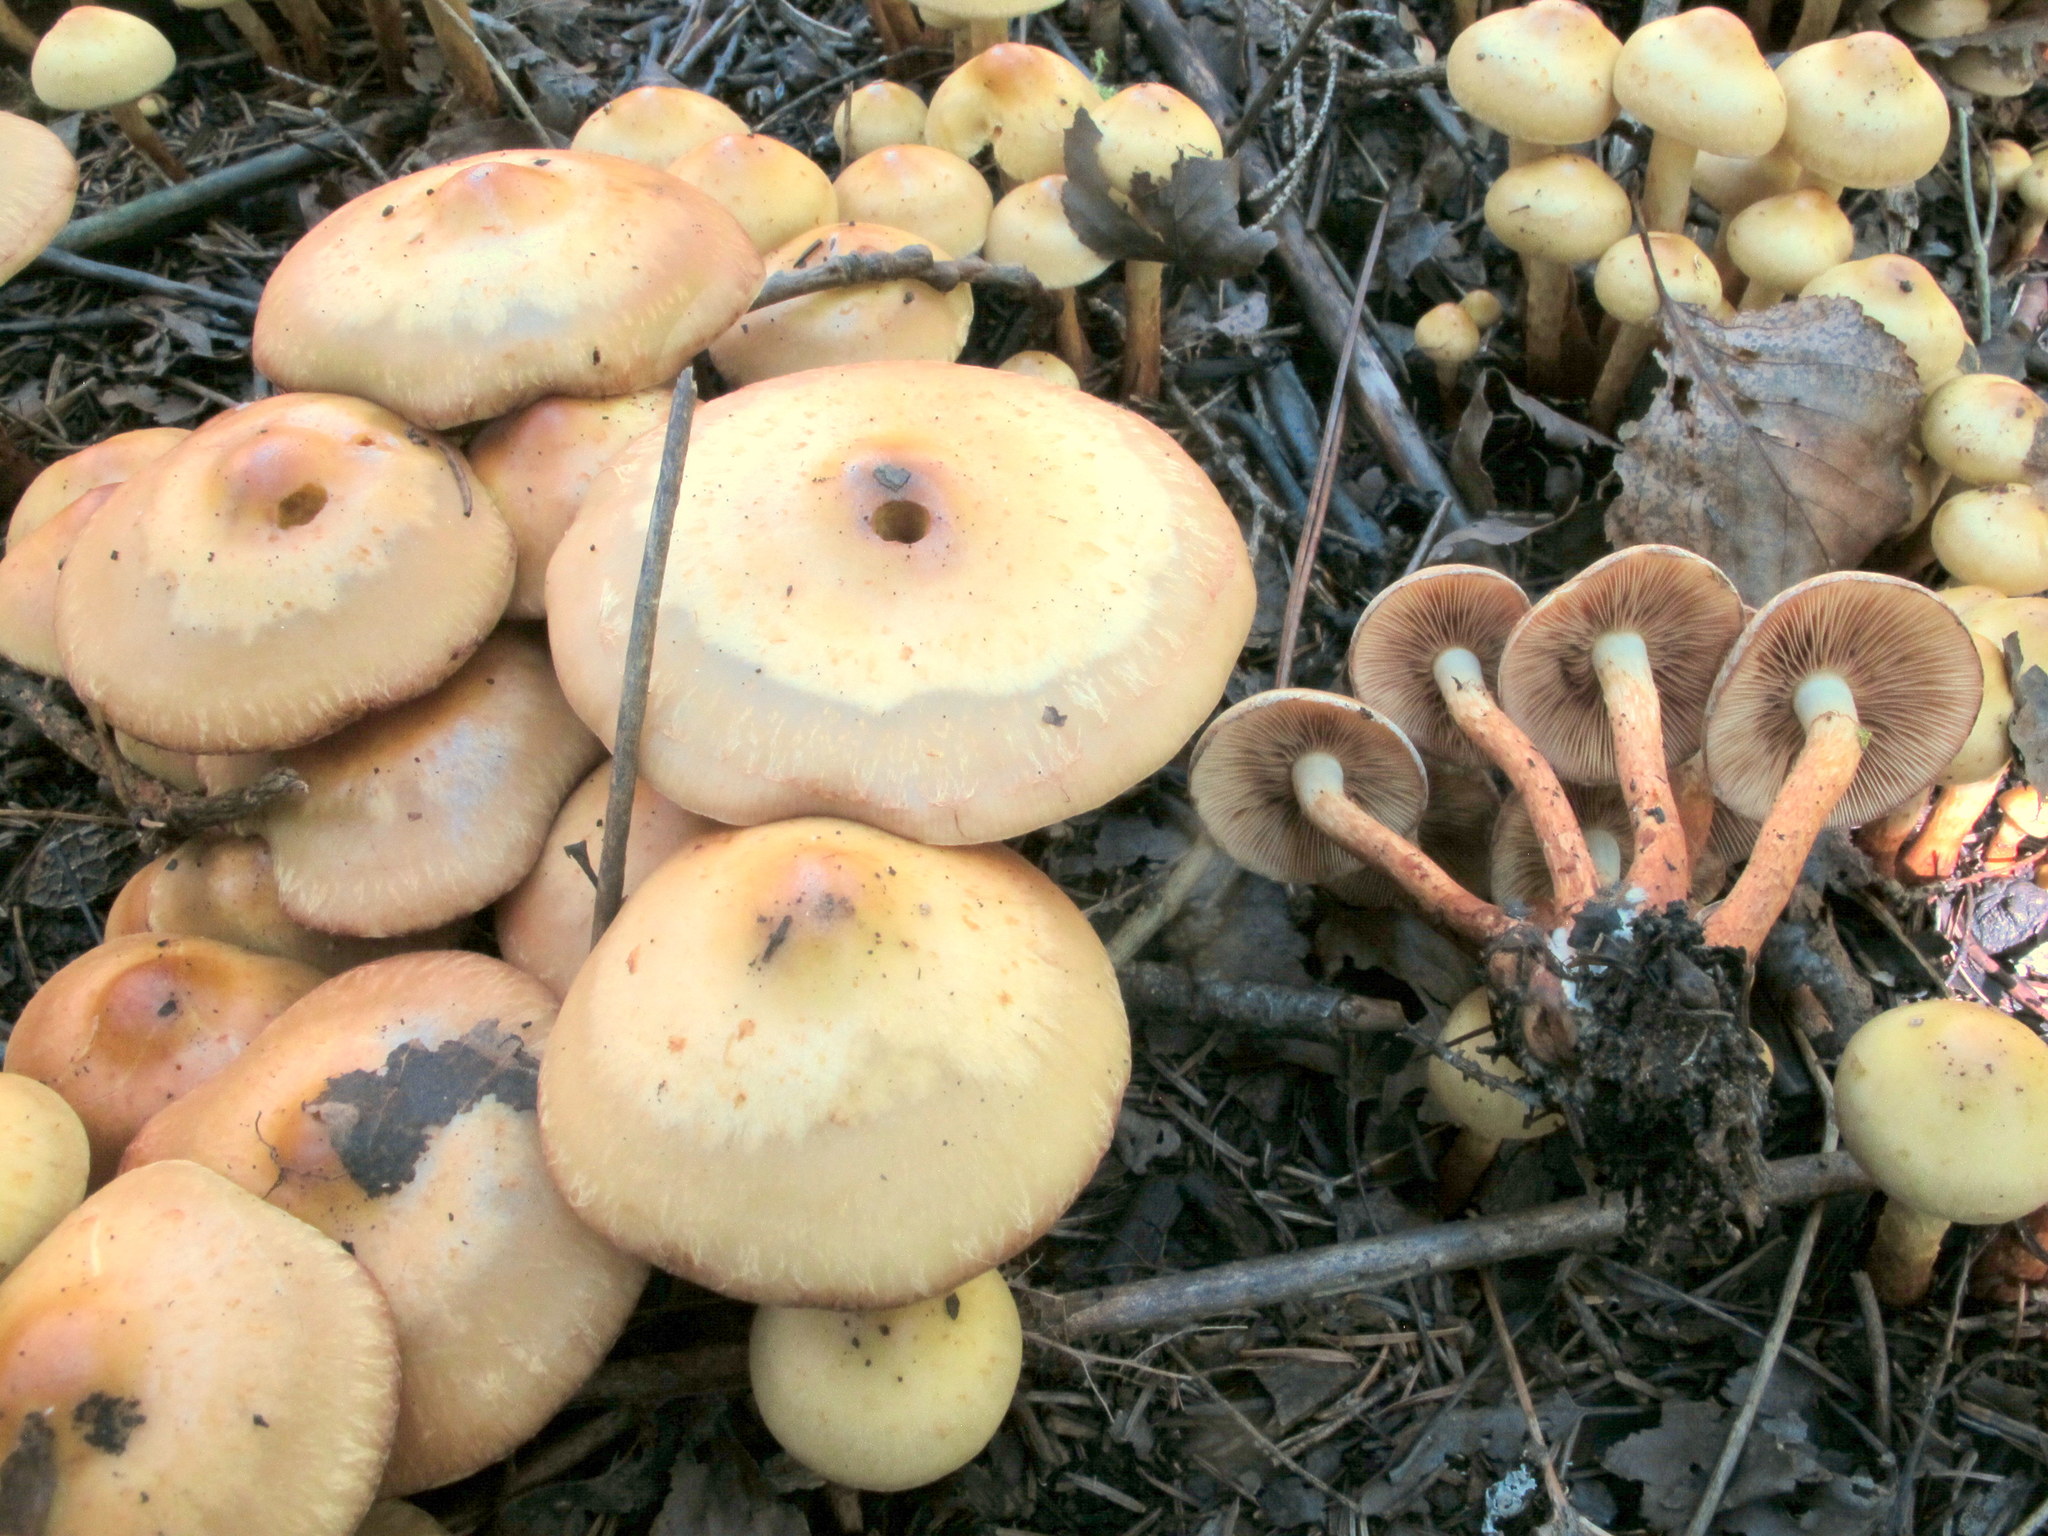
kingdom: Fungi
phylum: Basidiomycota
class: Agaricomycetes
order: Agaricales
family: Hymenogastraceae
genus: Flammula
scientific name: Flammula alnicola
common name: Alder scalycap
